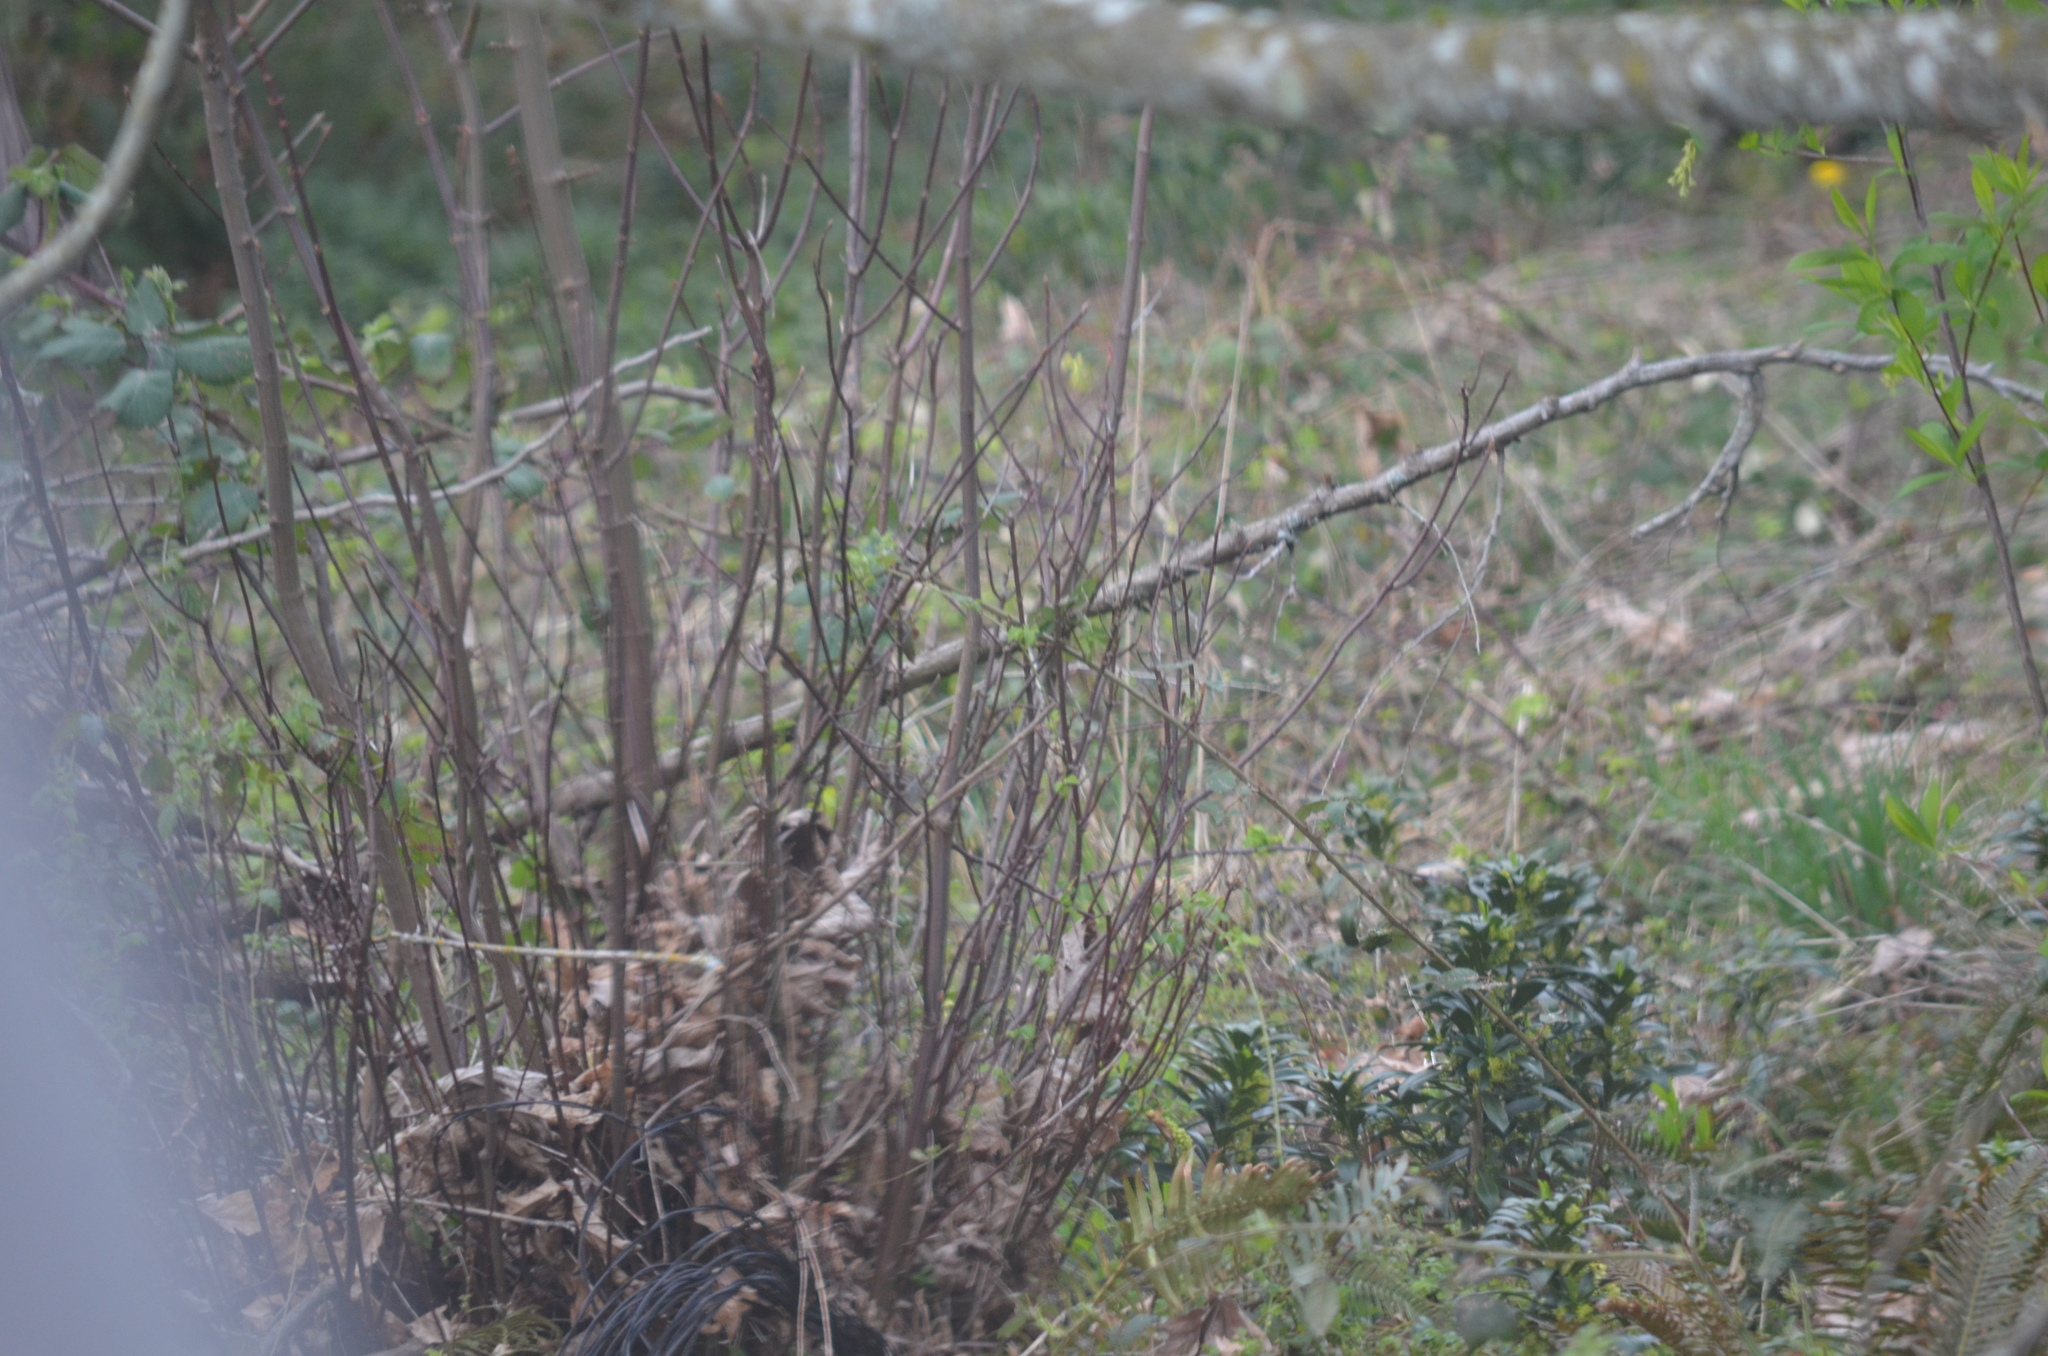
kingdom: Animalia
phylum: Chordata
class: Aves
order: Passeriformes
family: Passerellidae
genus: Melospiza
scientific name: Melospiza melodia
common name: Song sparrow
